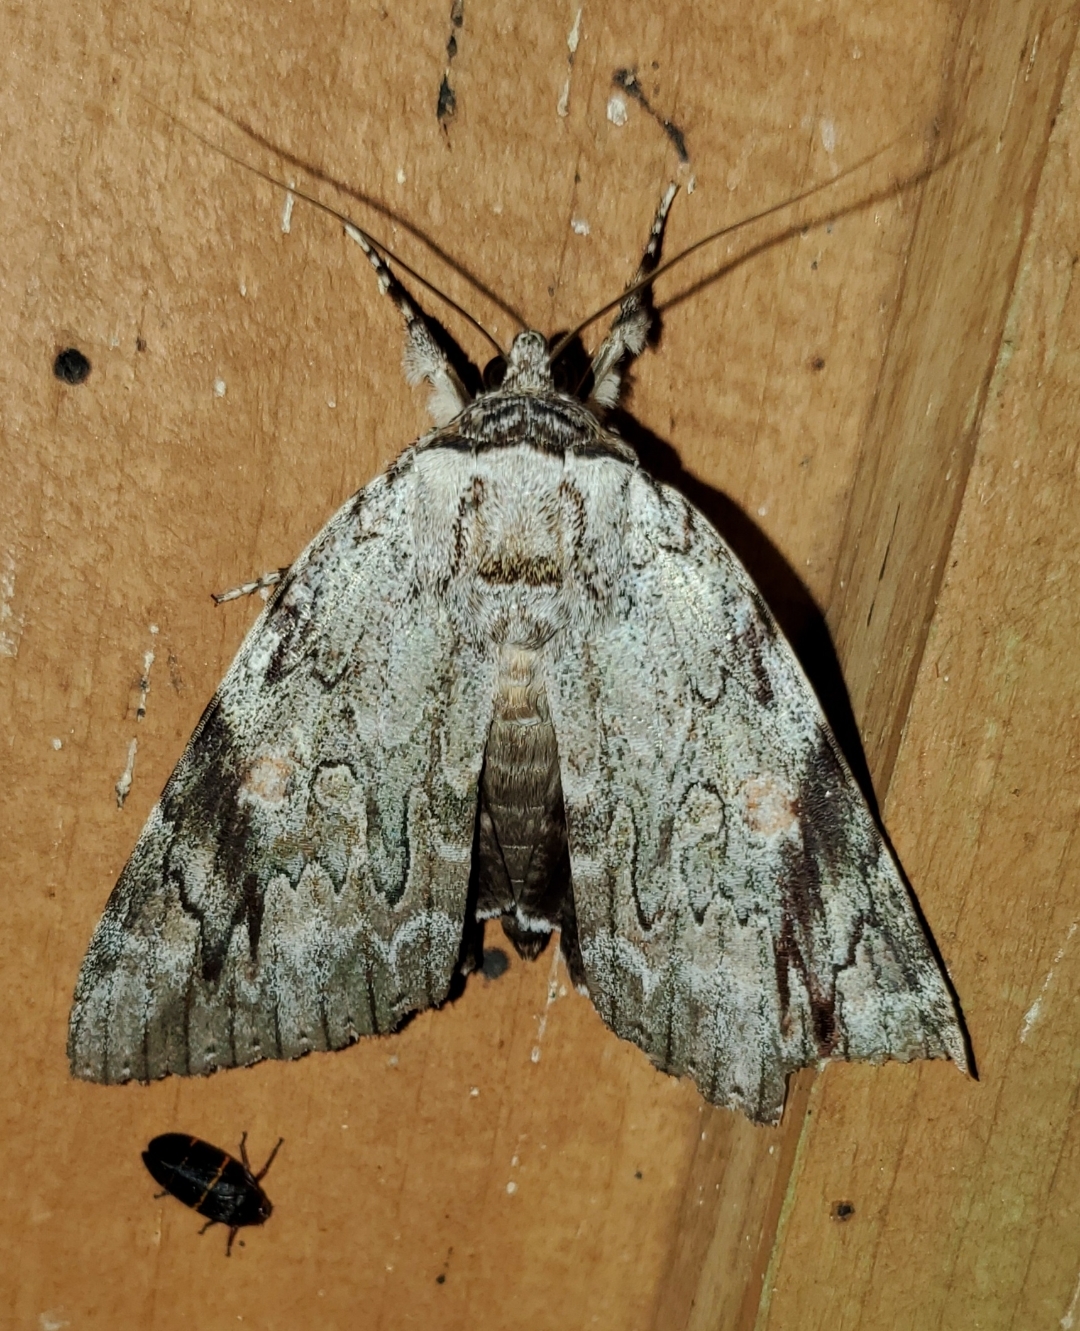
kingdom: Animalia
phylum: Arthropoda
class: Insecta
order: Lepidoptera
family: Erebidae
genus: Catocala
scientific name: Catocala maestosa
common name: Sad underwing
